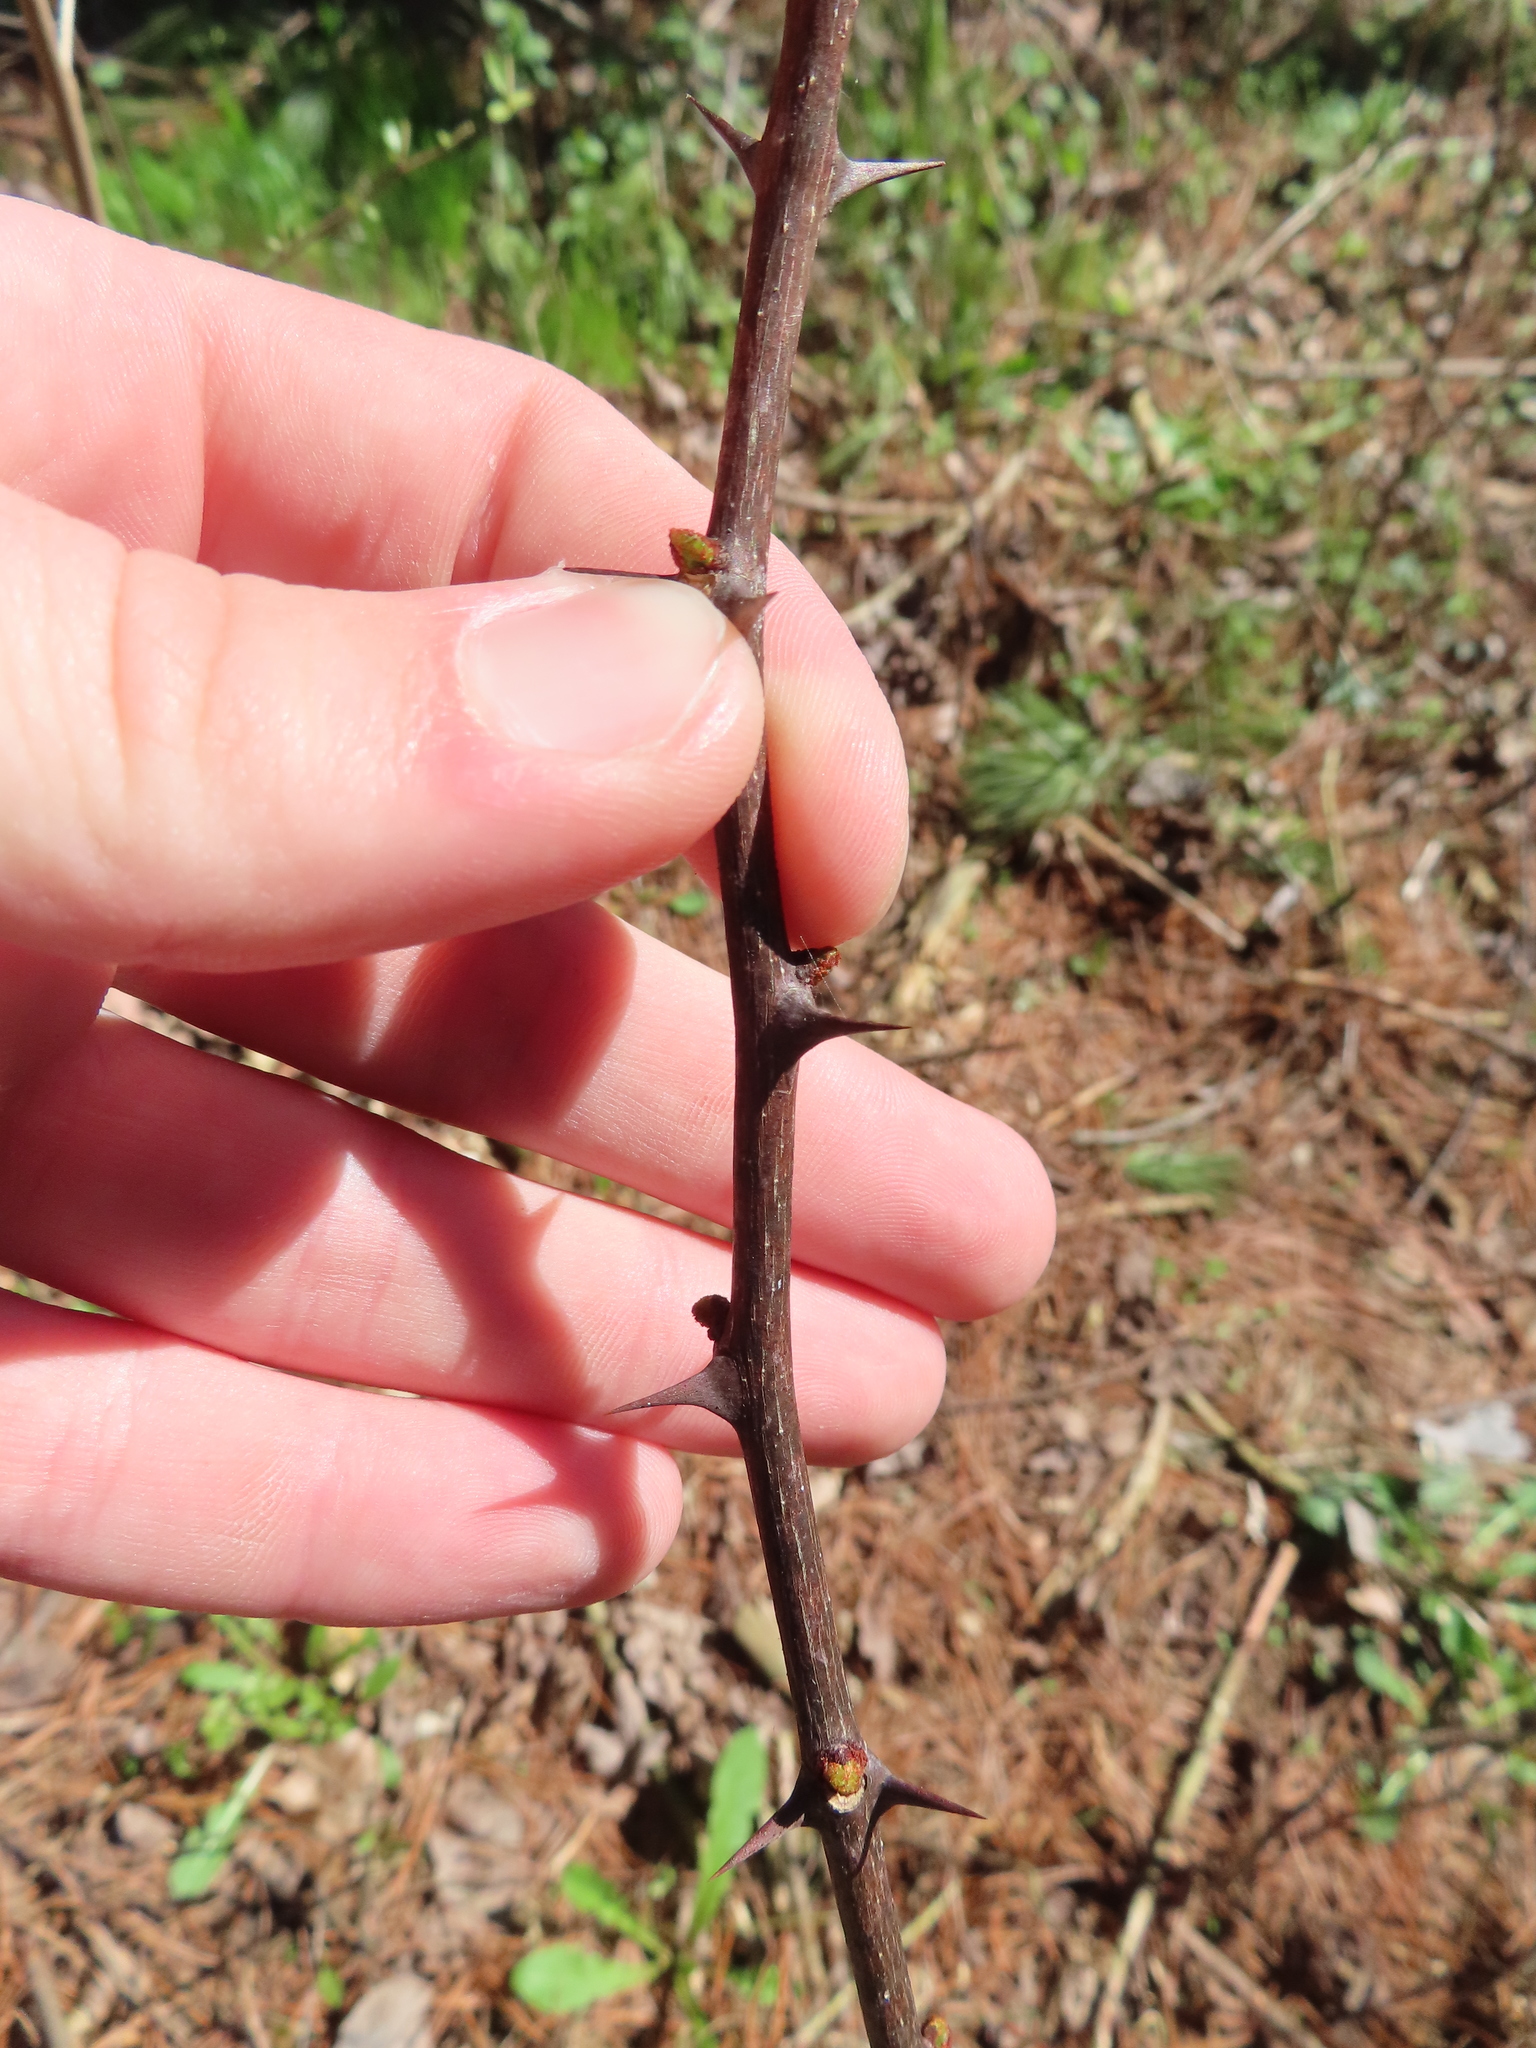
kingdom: Plantae
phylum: Tracheophyta
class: Magnoliopsida
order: Sapindales
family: Rutaceae
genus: Zanthoxylum
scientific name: Zanthoxylum americanum
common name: Northern prickly-ash
